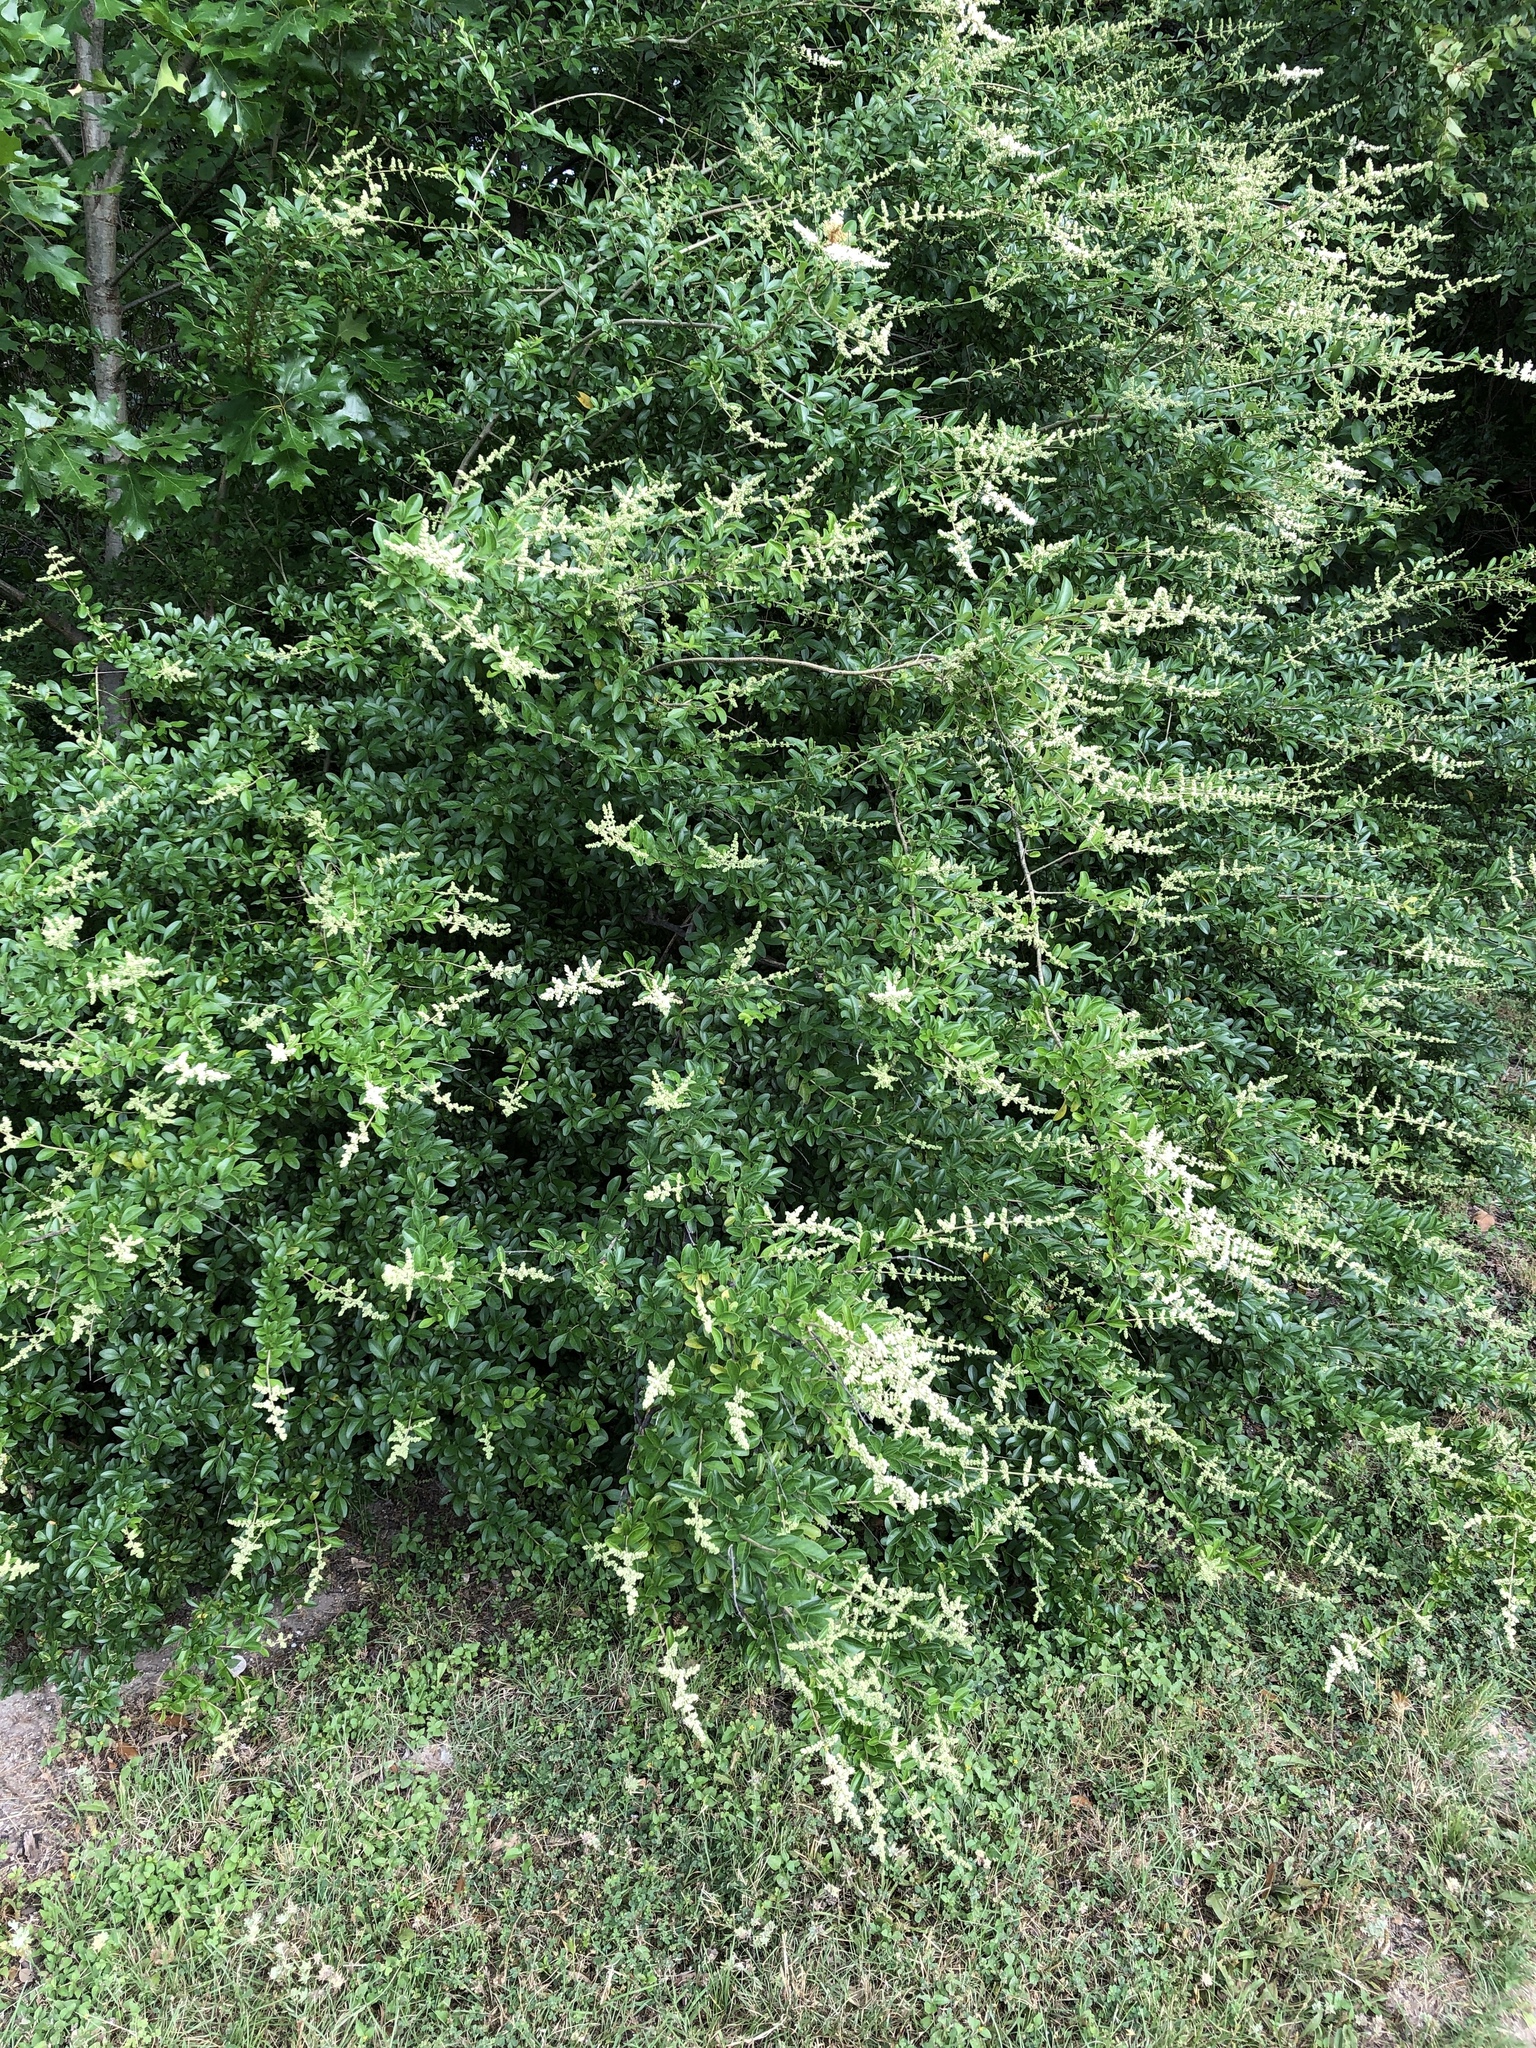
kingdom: Plantae
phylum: Tracheophyta
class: Magnoliopsida
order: Lamiales
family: Oleaceae
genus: Ligustrum
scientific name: Ligustrum quihoui
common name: Waxyleaf privet
